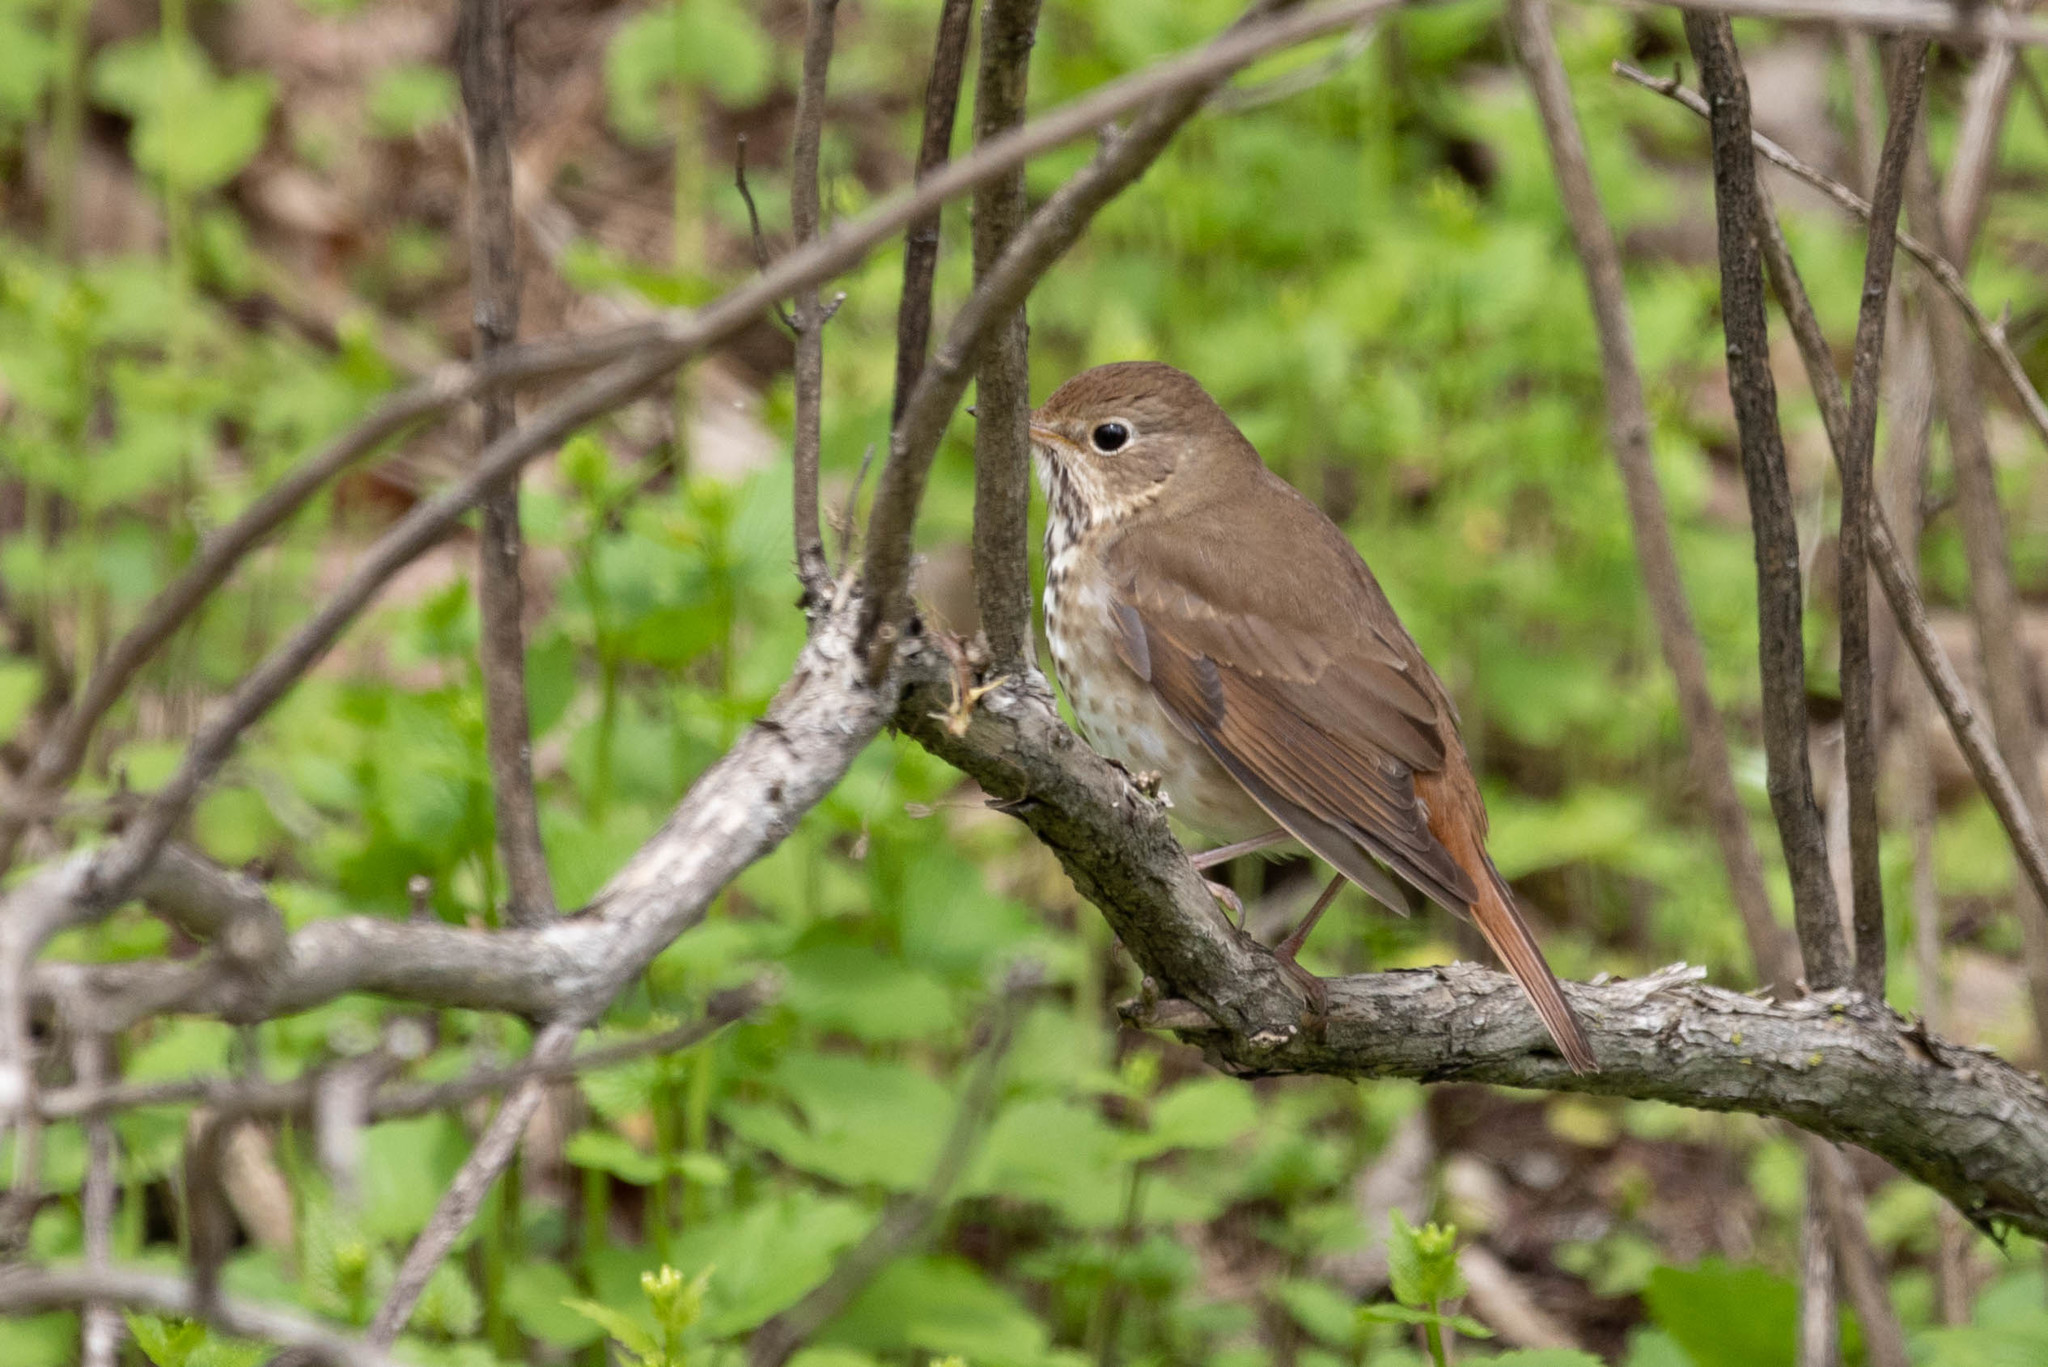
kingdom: Animalia
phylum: Chordata
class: Aves
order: Passeriformes
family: Turdidae
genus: Catharus
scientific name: Catharus guttatus
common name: Hermit thrush
